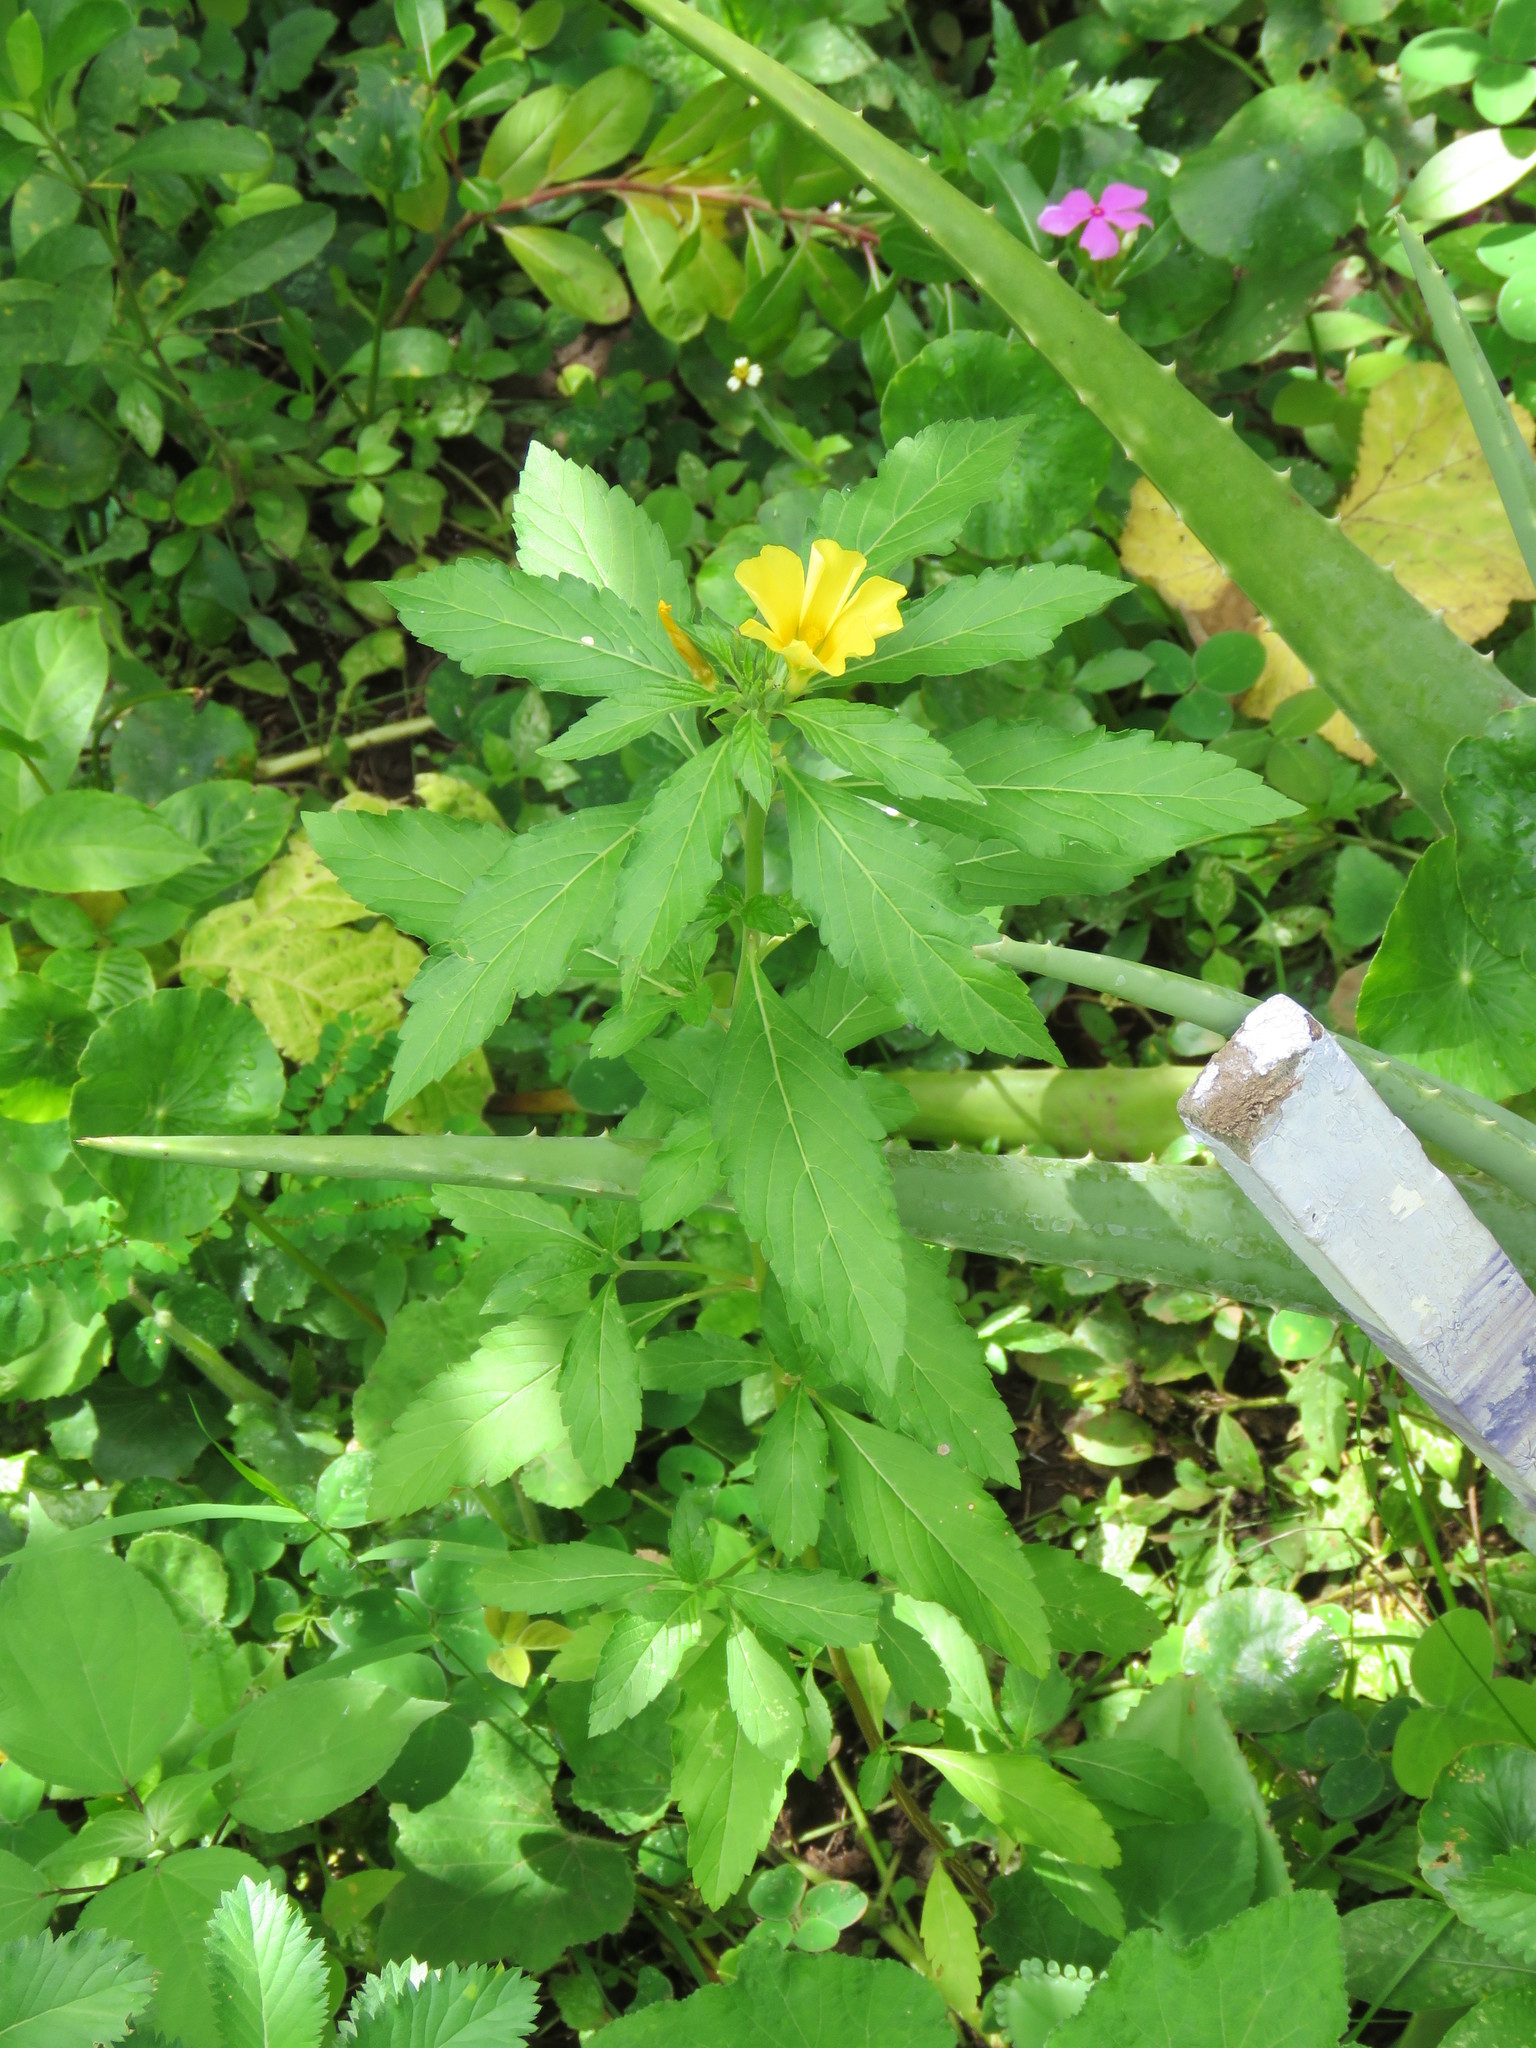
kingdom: Plantae
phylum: Tracheophyta
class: Magnoliopsida
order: Malpighiales
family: Turneraceae
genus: Turnera
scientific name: Turnera ulmifolia
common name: Ramgoat dashalong
